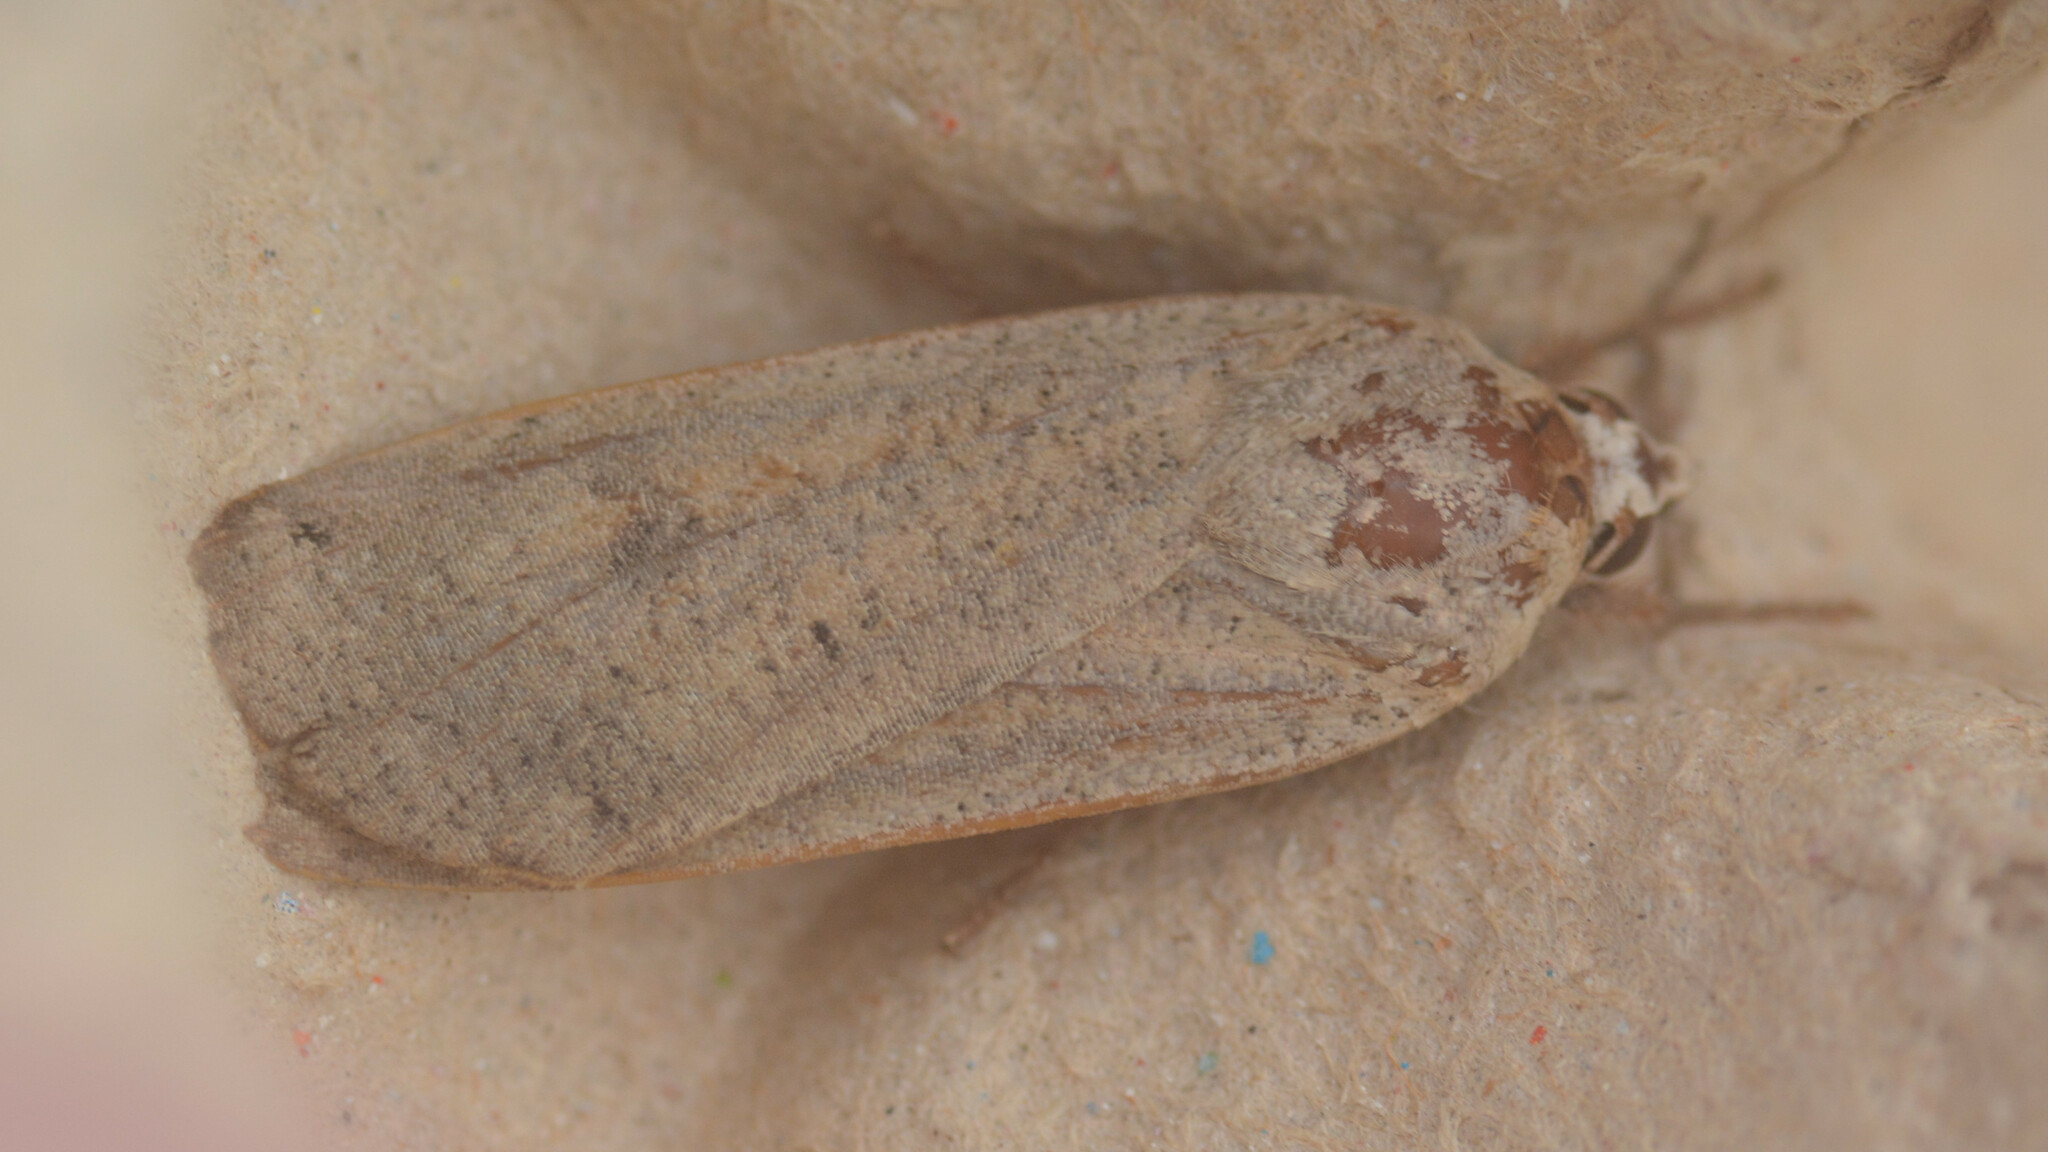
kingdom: Animalia
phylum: Arthropoda
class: Insecta
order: Lepidoptera
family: Noctuidae
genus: Noctua
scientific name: Noctua pronuba
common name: Large yellow underwing
